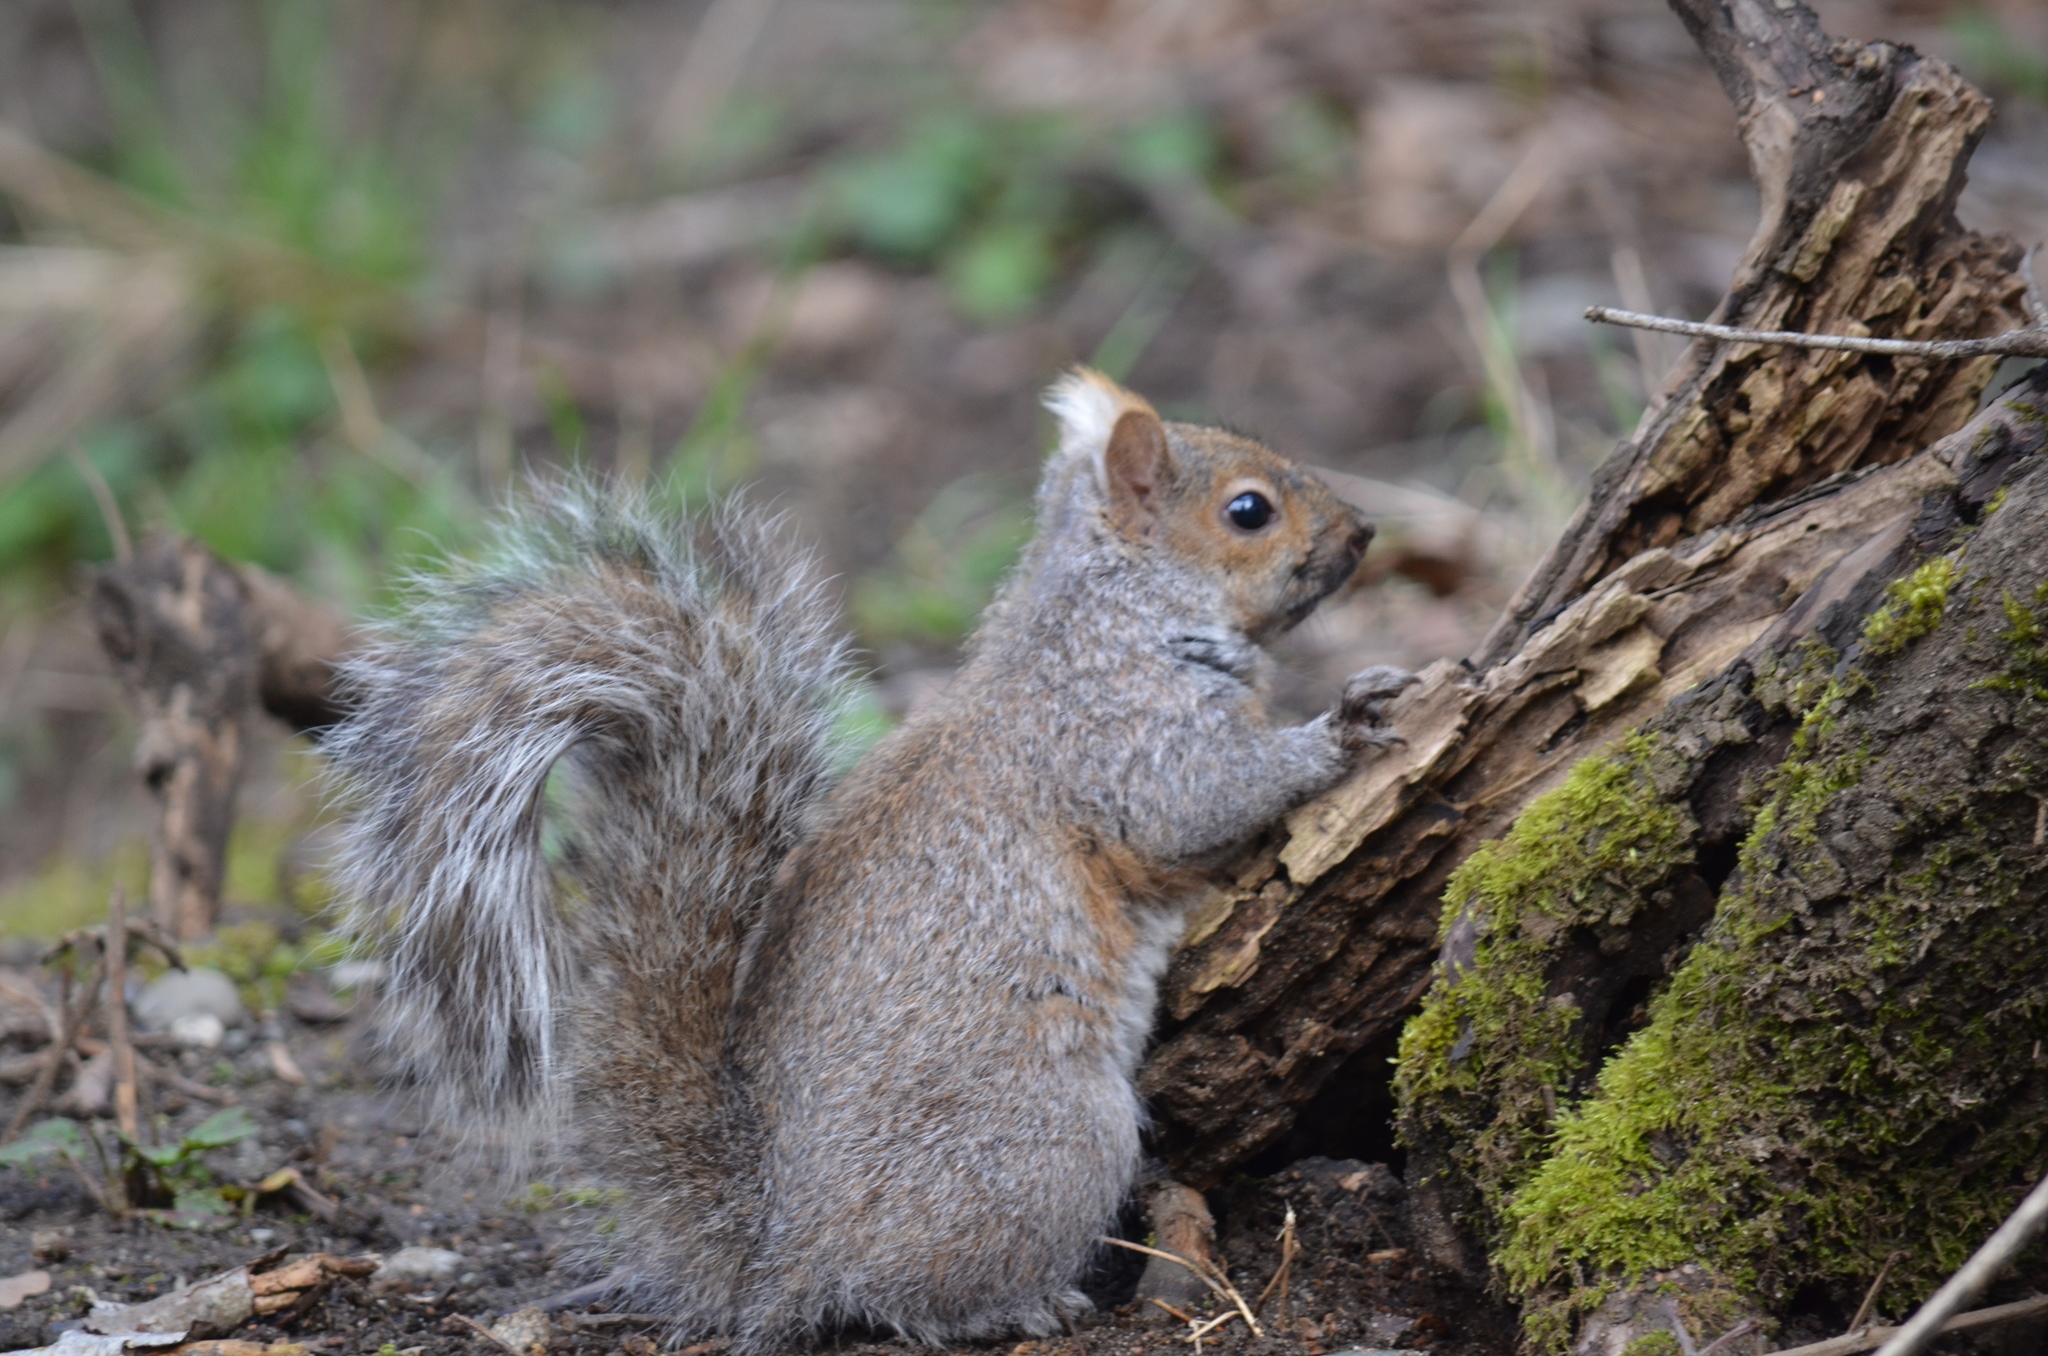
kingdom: Animalia
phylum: Chordata
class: Mammalia
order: Rodentia
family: Sciuridae
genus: Sciurus
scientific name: Sciurus carolinensis
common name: Eastern gray squirrel
